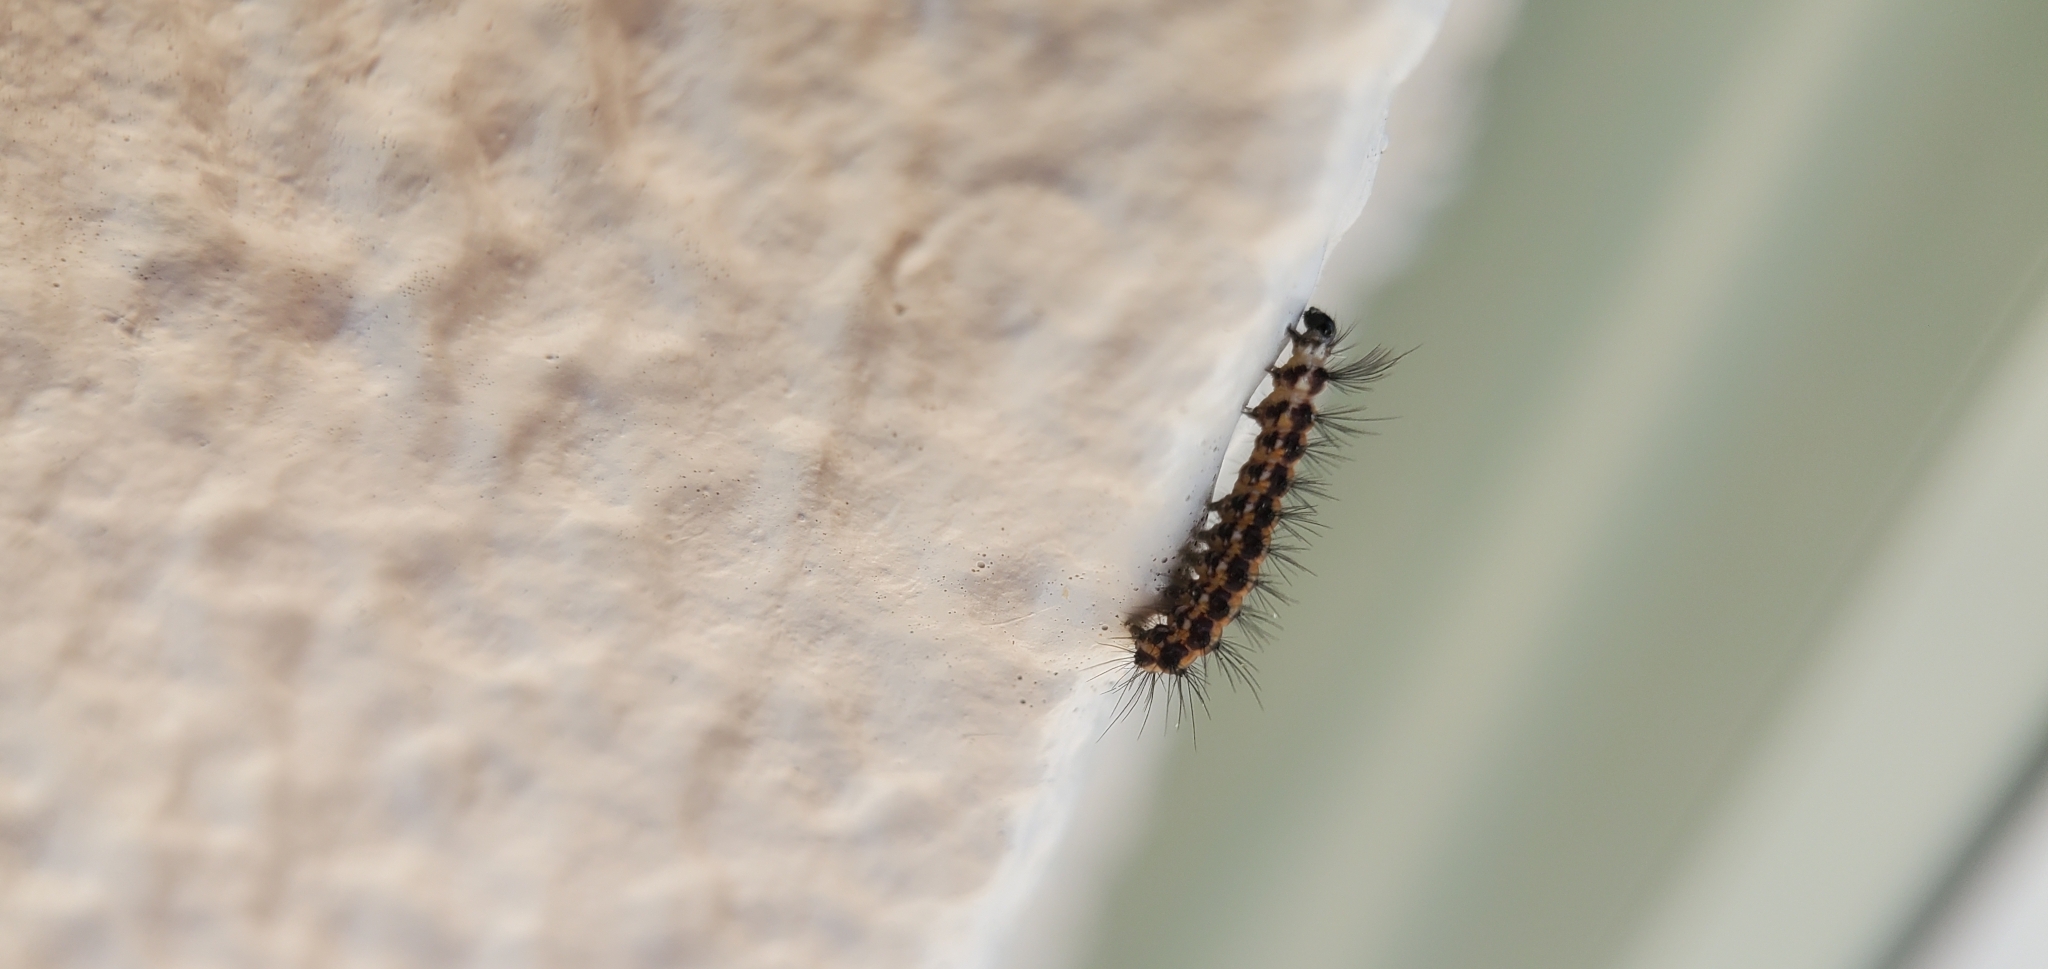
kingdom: Animalia
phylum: Arthropoda
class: Insecta
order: Lepidoptera
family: Erebidae
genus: Nyctemera
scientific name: Nyctemera annulatum
